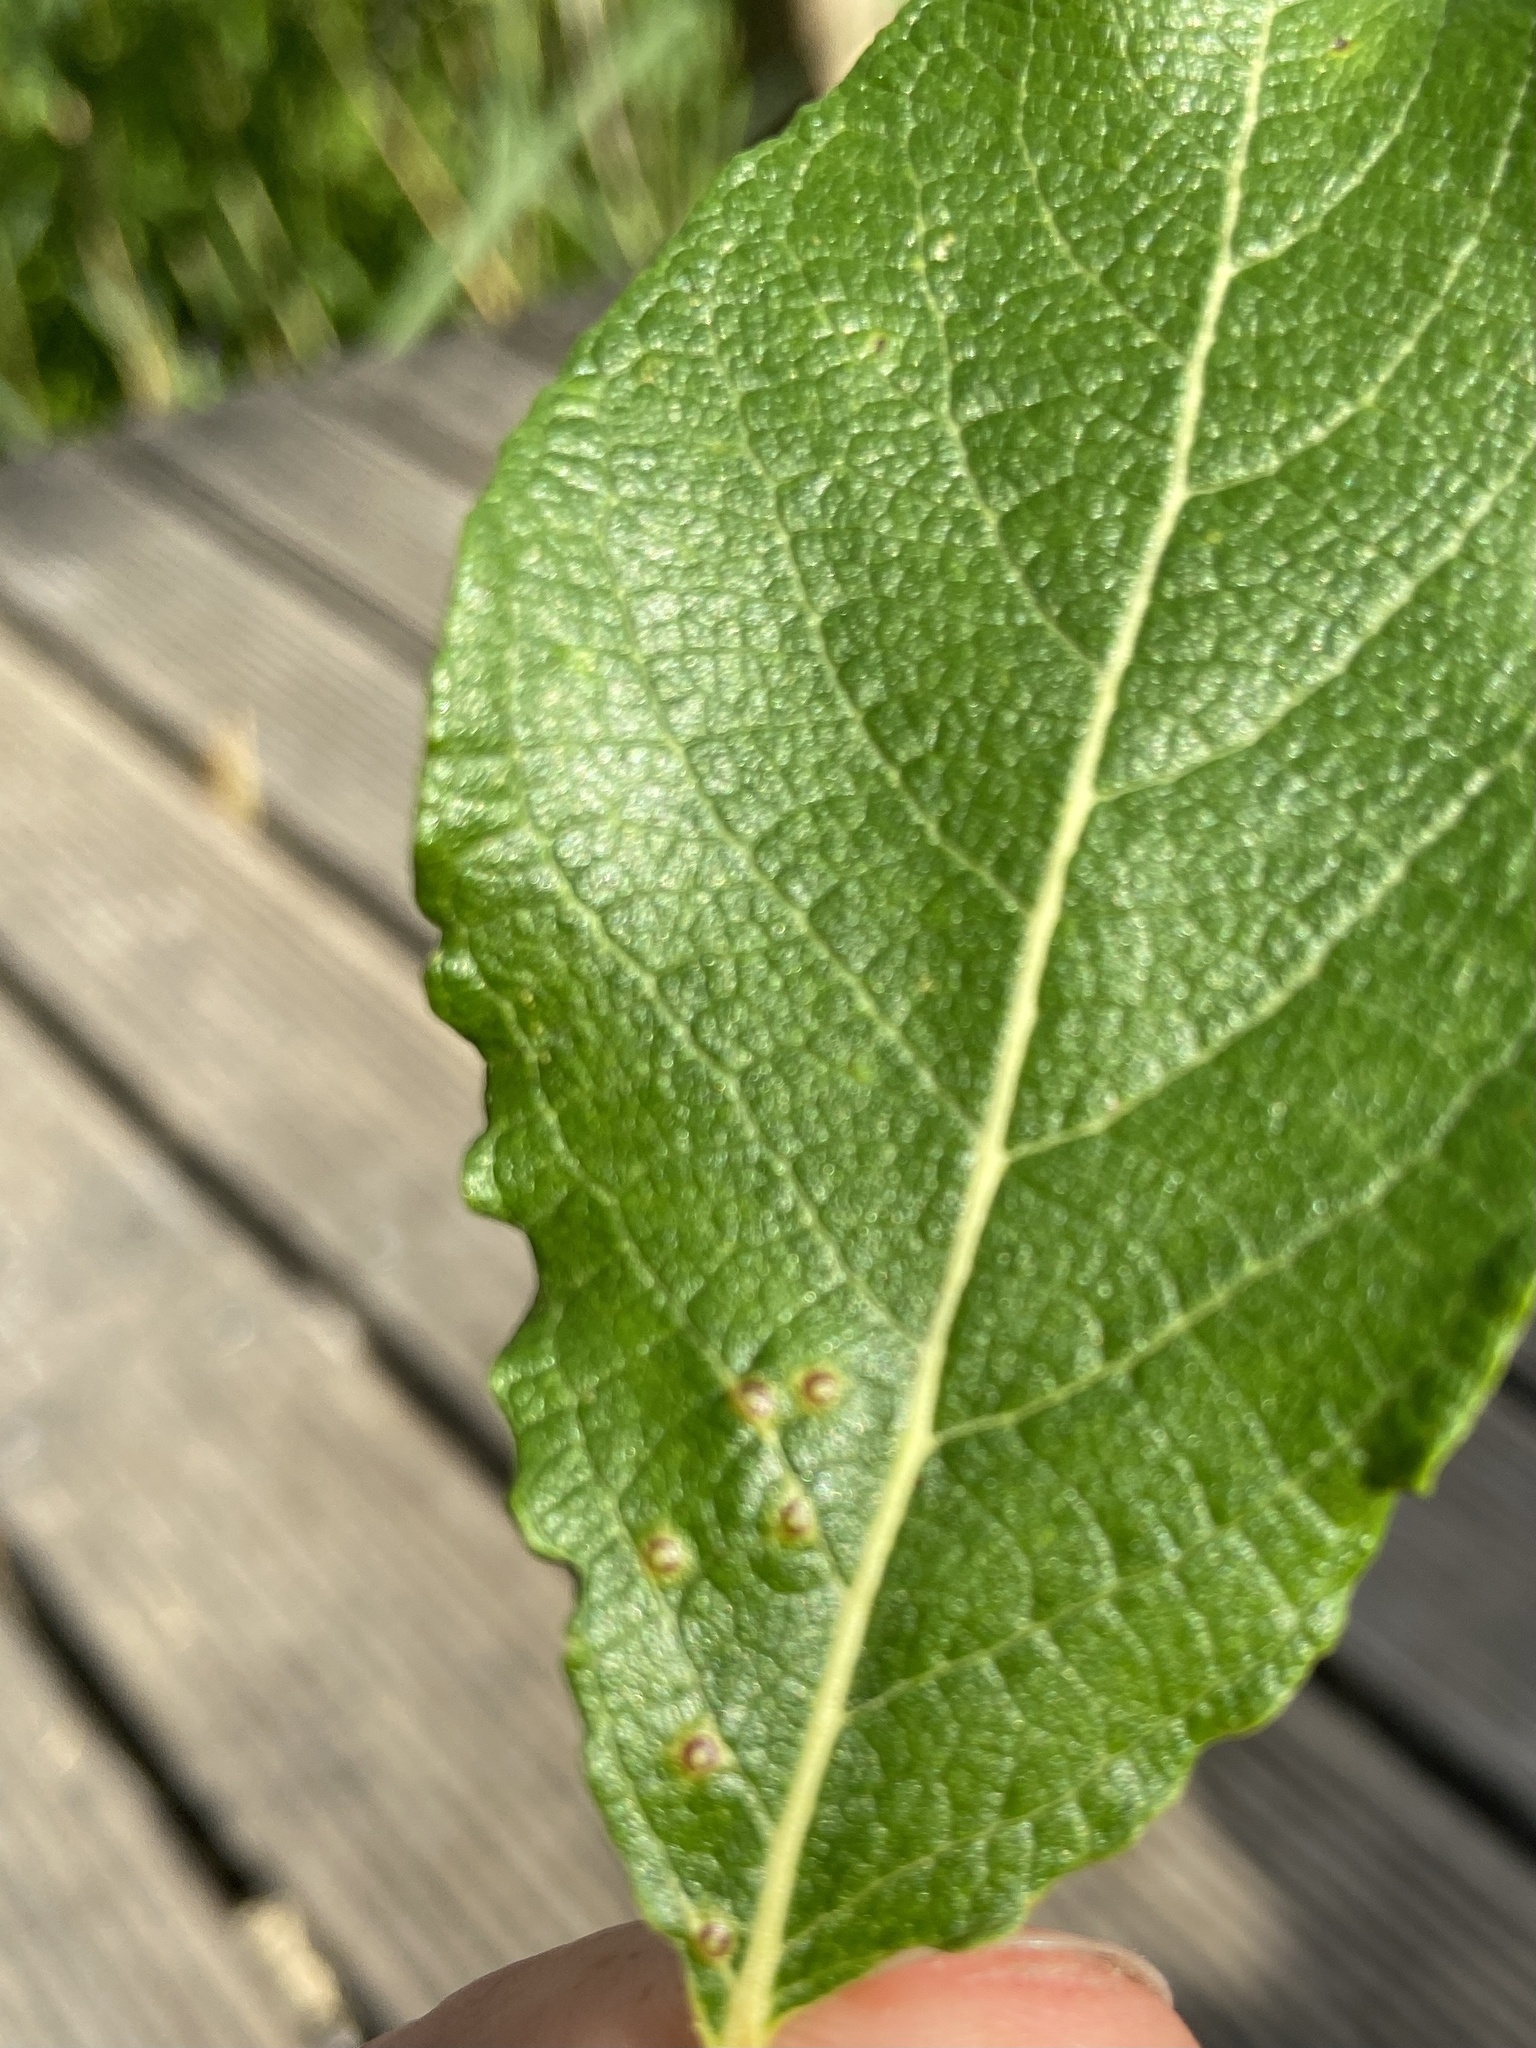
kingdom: Animalia
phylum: Arthropoda
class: Insecta
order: Diptera
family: Cecidomyiidae
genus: Iteomyia
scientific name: Iteomyia capreae
